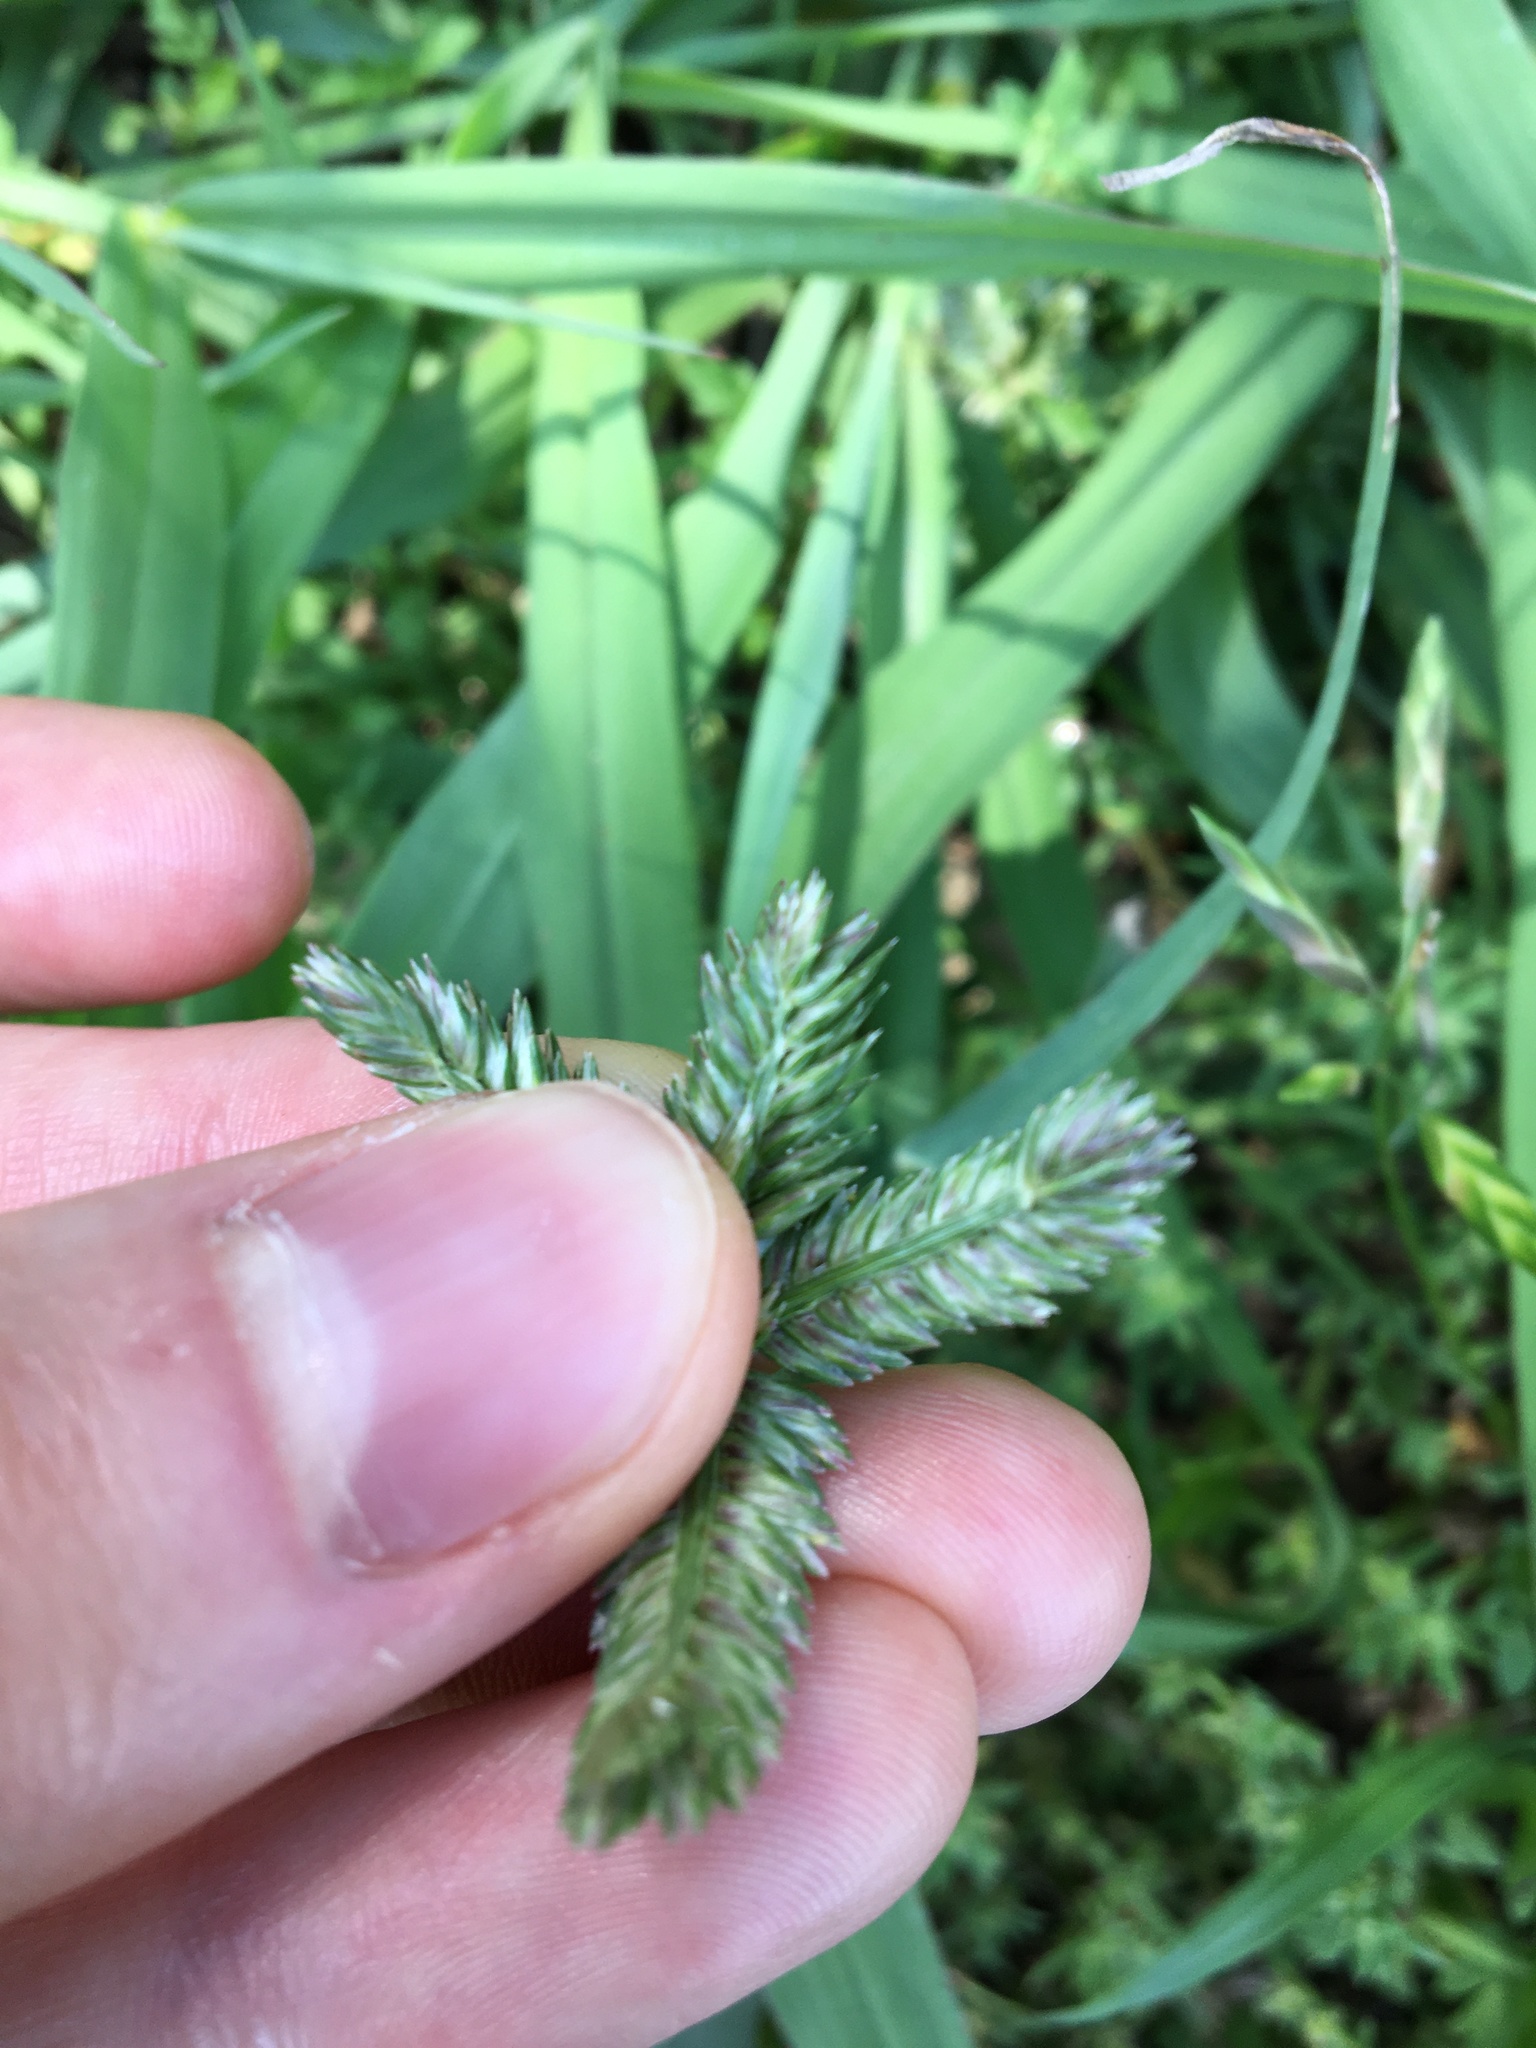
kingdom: Plantae
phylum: Tracheophyta
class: Liliopsida
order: Poales
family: Poaceae
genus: Eleusine
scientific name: Eleusine tristachya
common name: American yard-grass
